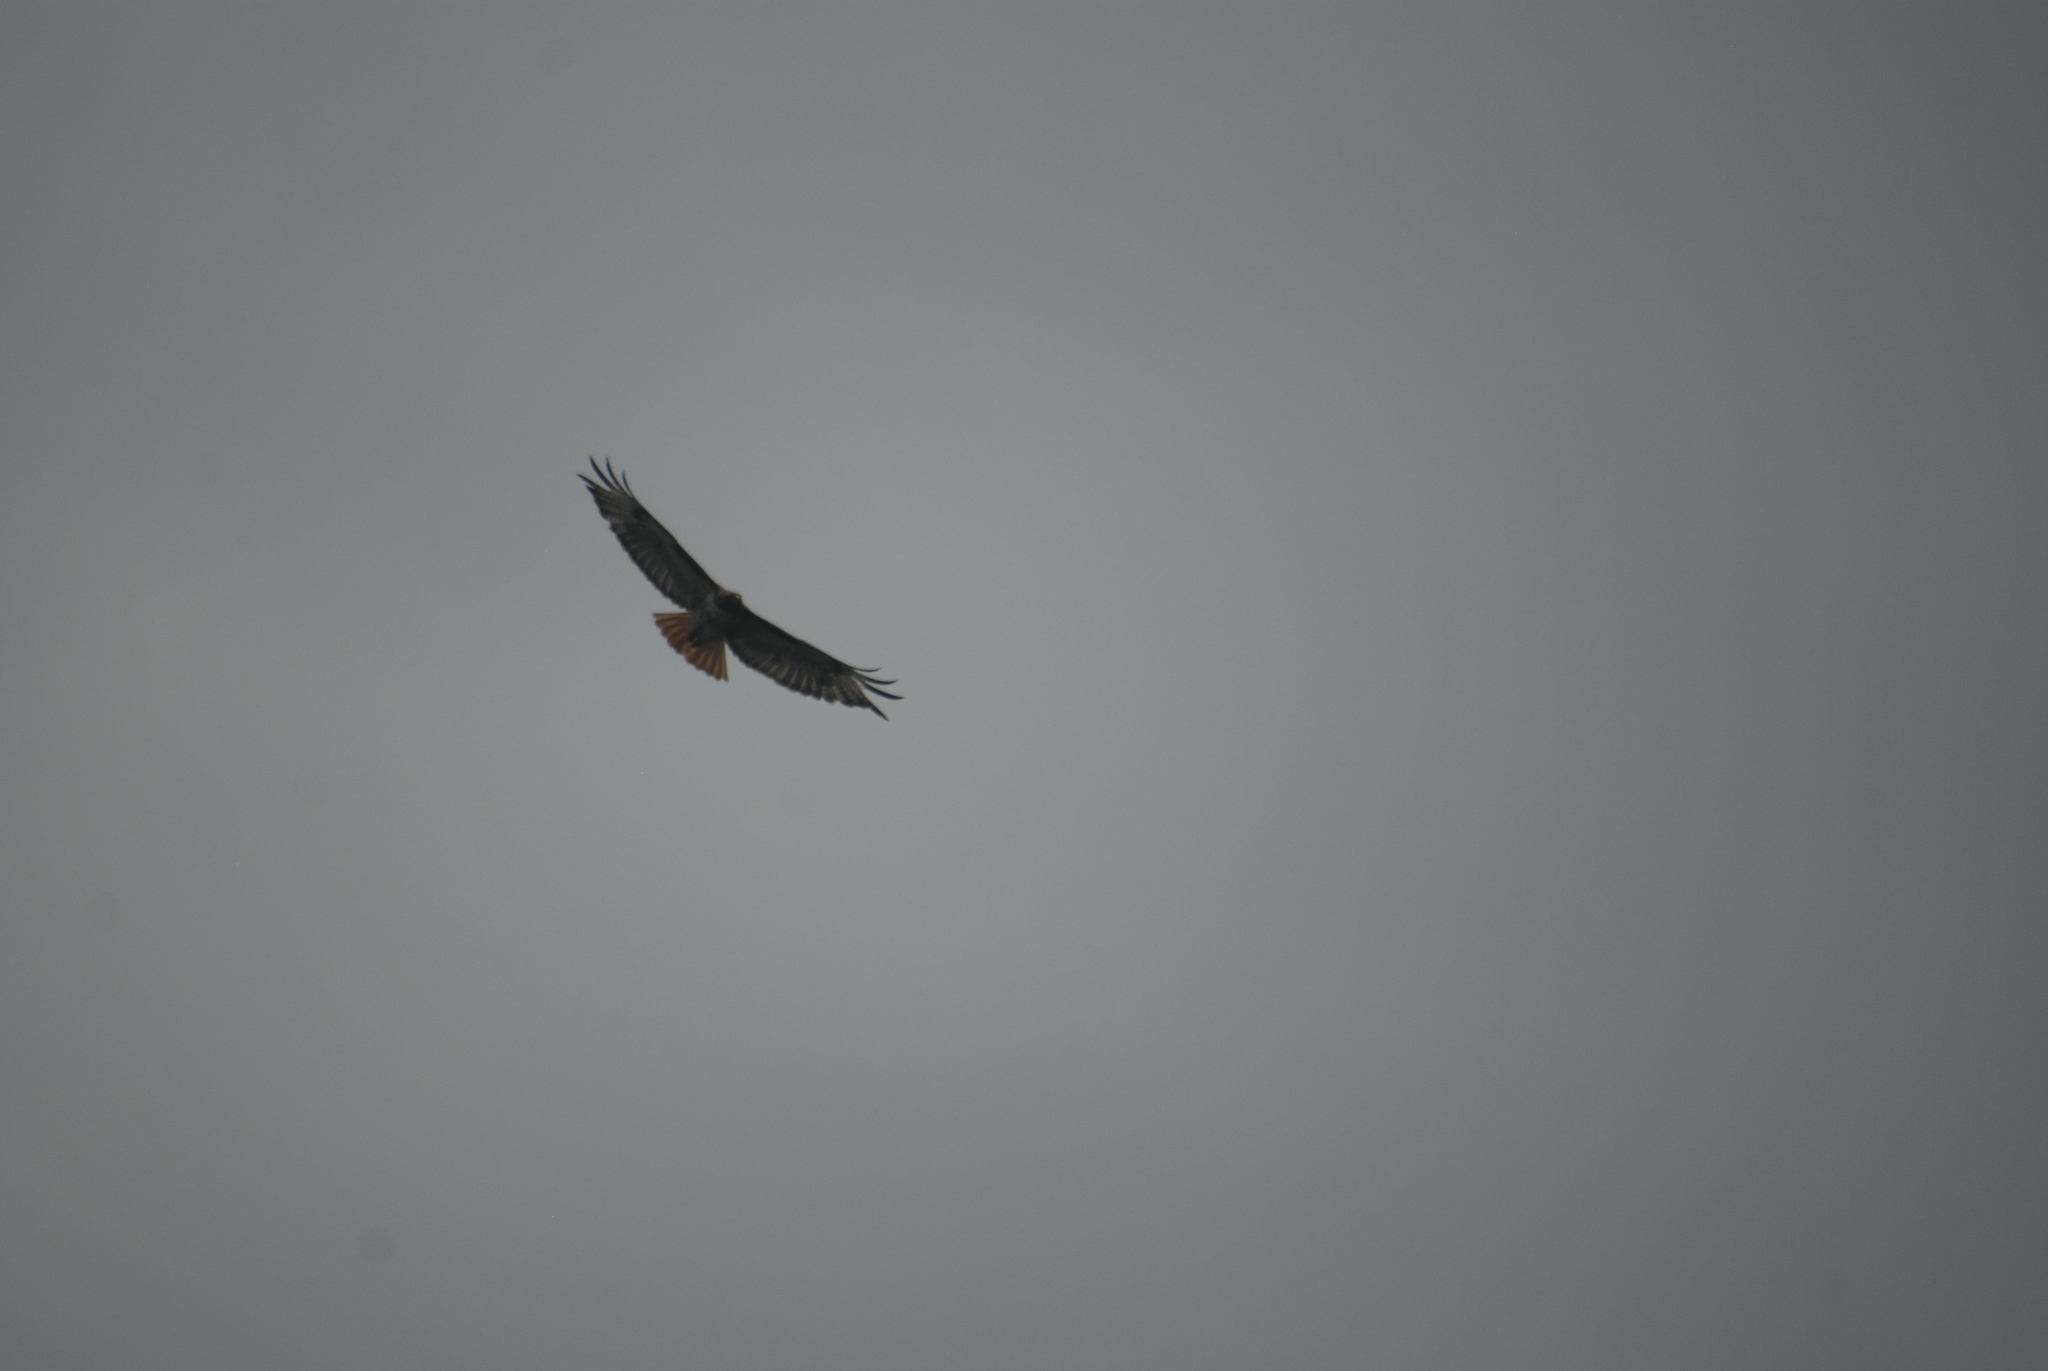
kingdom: Animalia
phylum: Chordata
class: Aves
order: Accipitriformes
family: Accipitridae
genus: Buteo
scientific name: Buteo jamaicensis
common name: Red-tailed hawk
